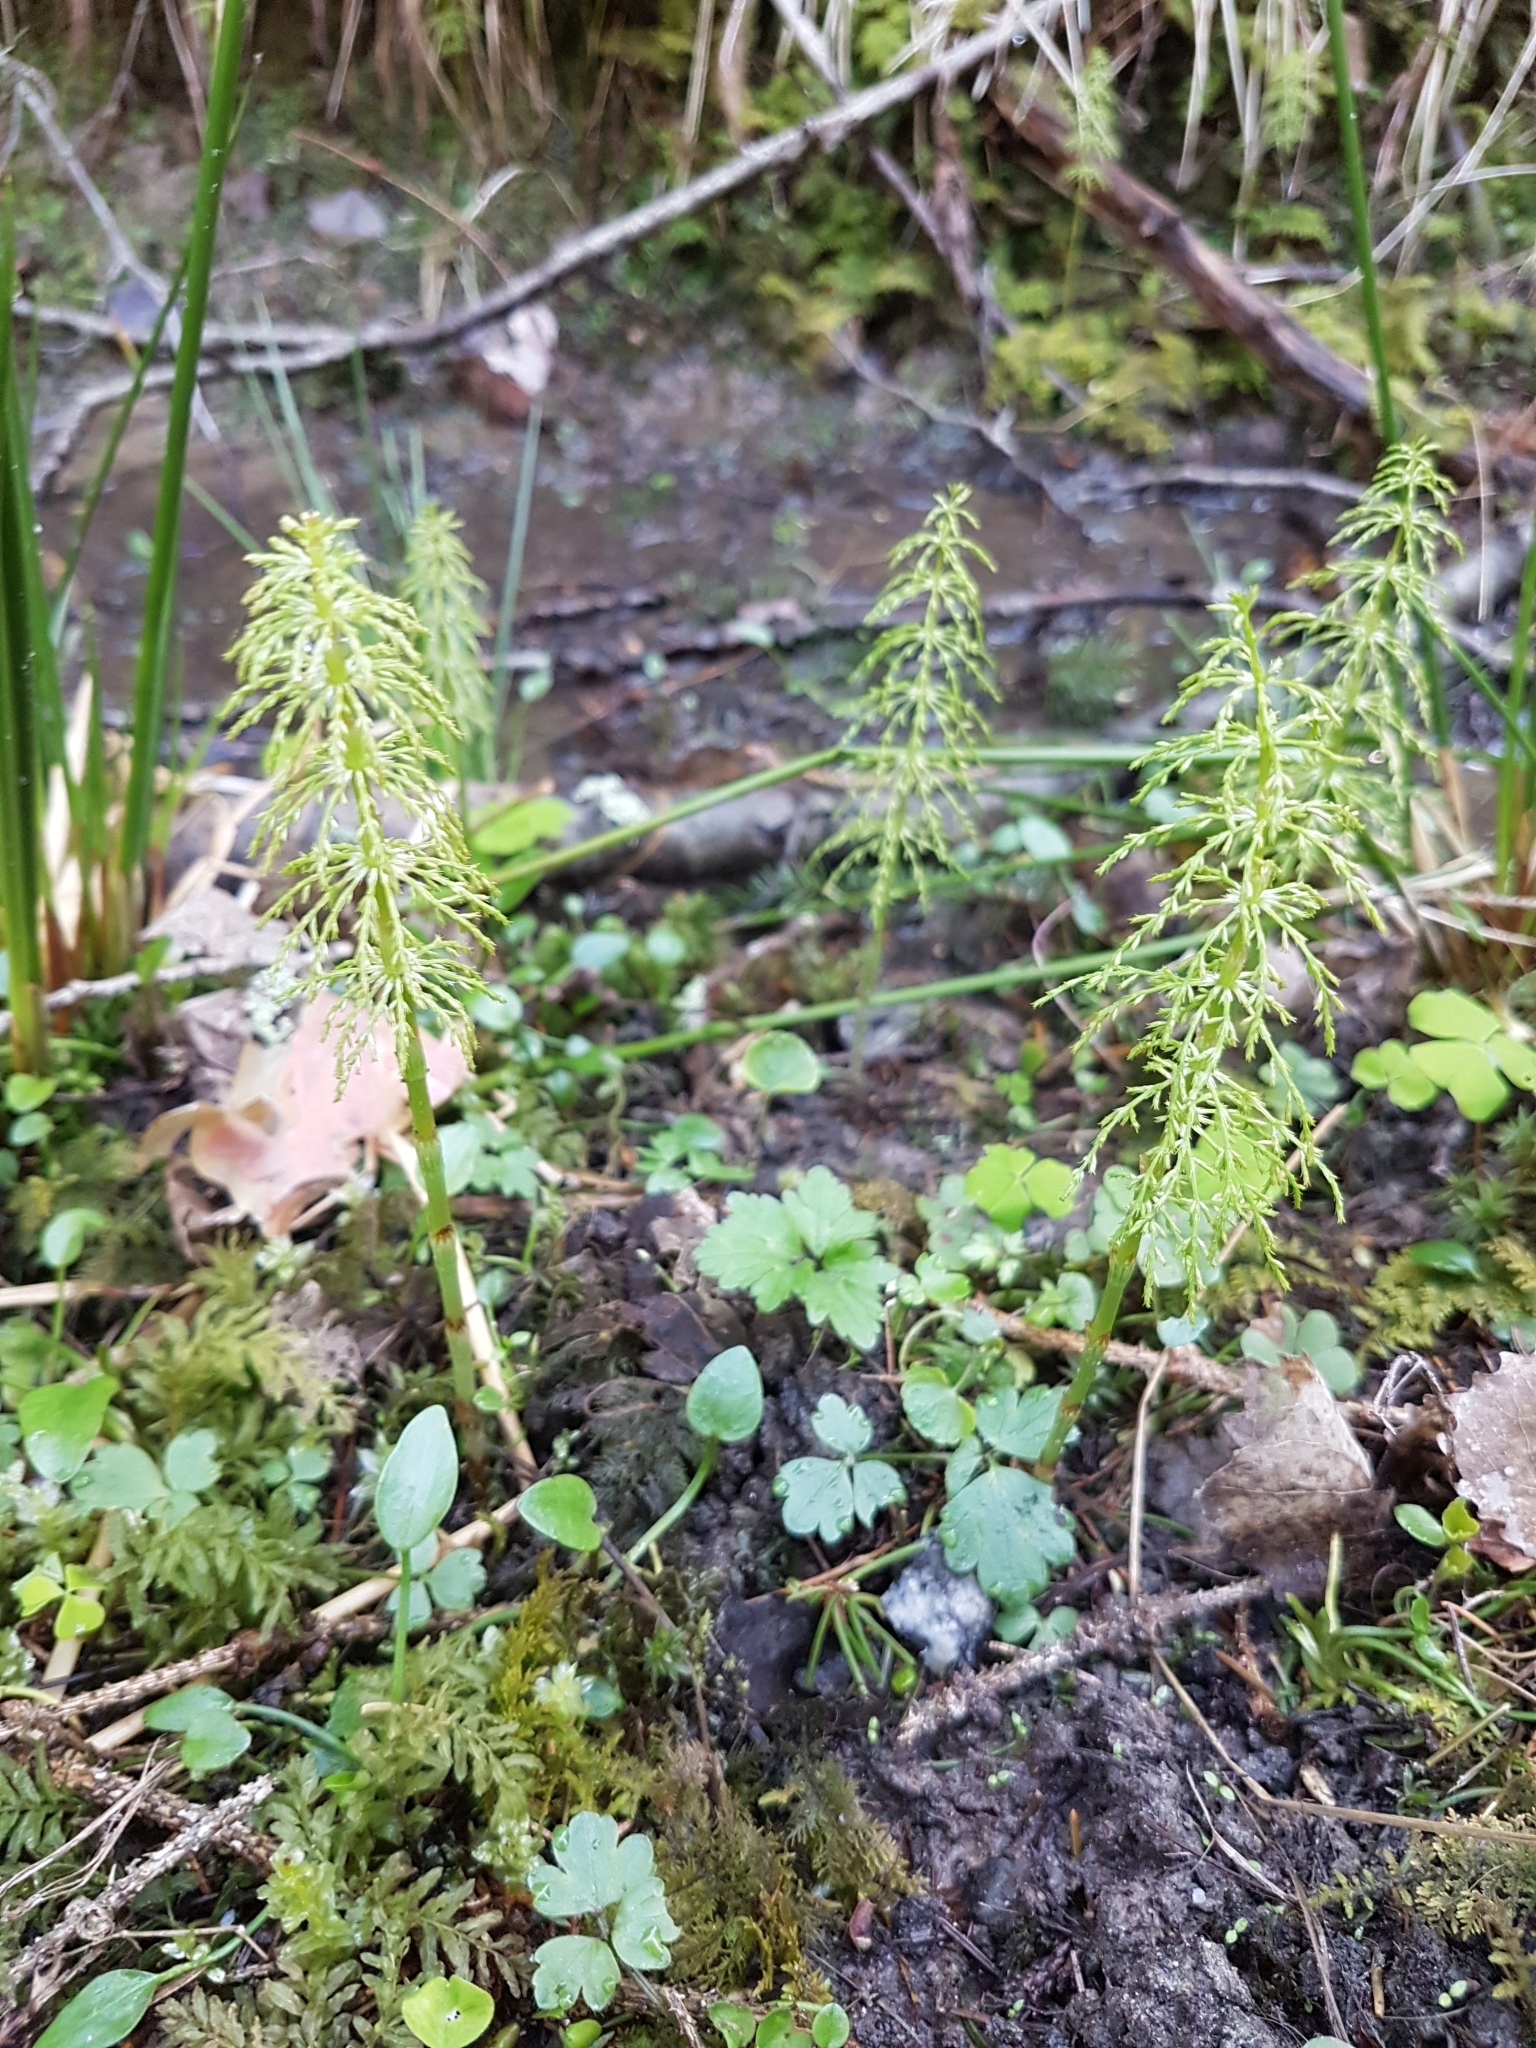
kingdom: Plantae
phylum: Tracheophyta
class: Polypodiopsida
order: Equisetales
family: Equisetaceae
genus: Equisetum
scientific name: Equisetum sylvaticum
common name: Wood horsetail
